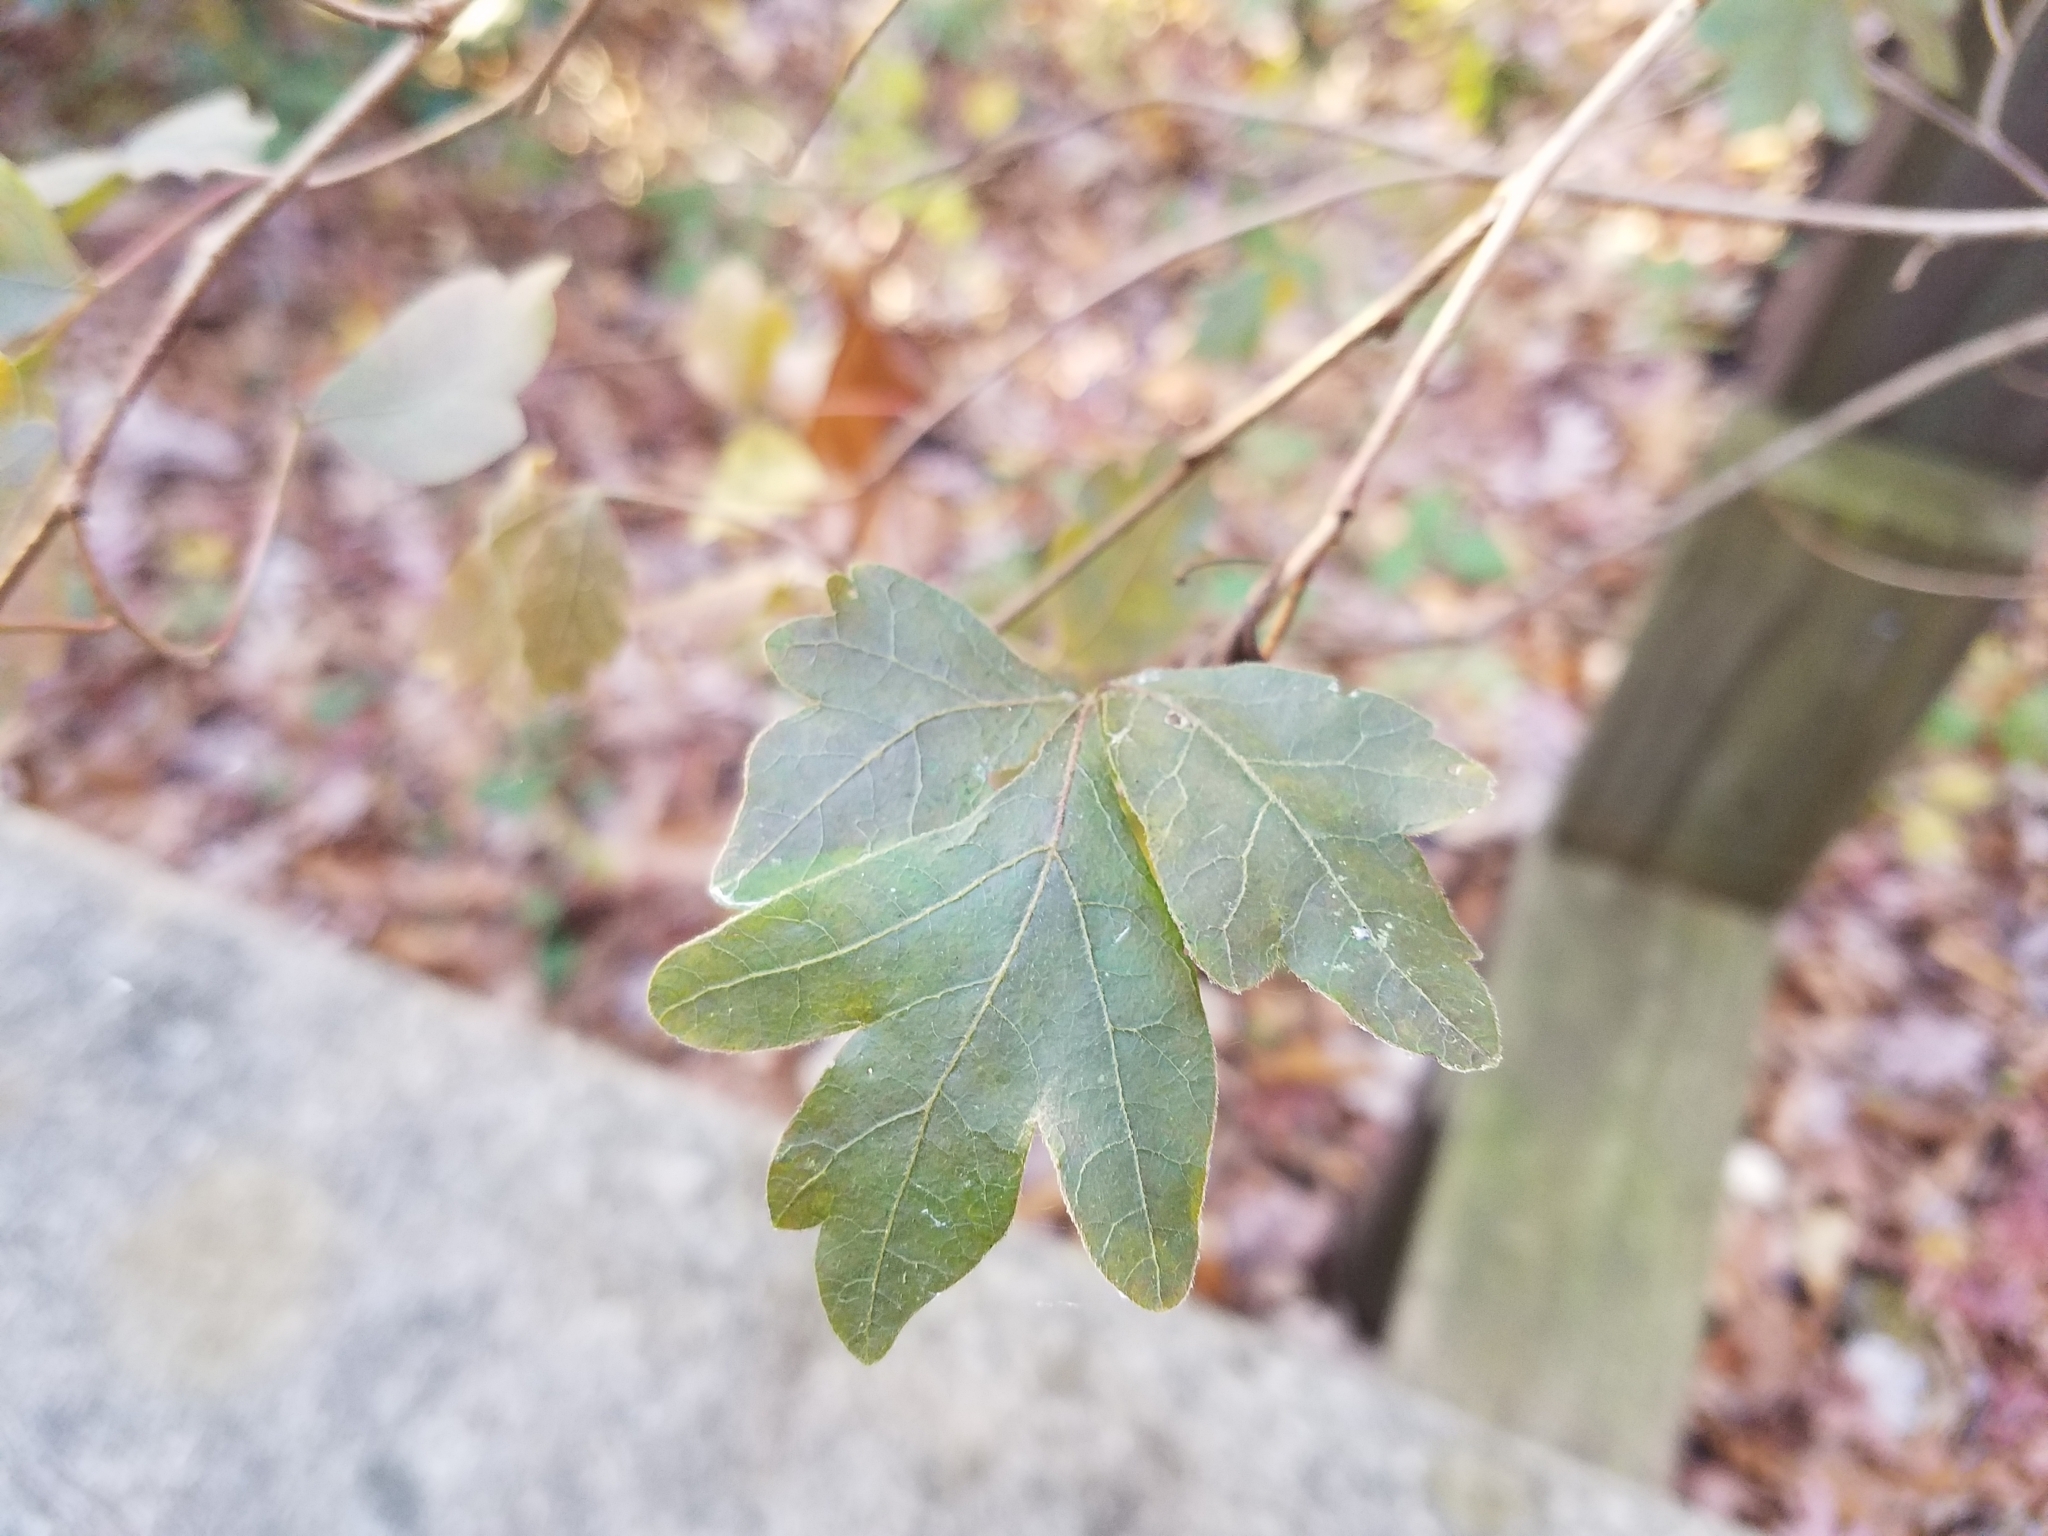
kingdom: Plantae
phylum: Tracheophyta
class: Magnoliopsida
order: Sapindales
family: Anacardiaceae
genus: Rhus
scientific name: Rhus aromatica
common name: Aromatic sumac
